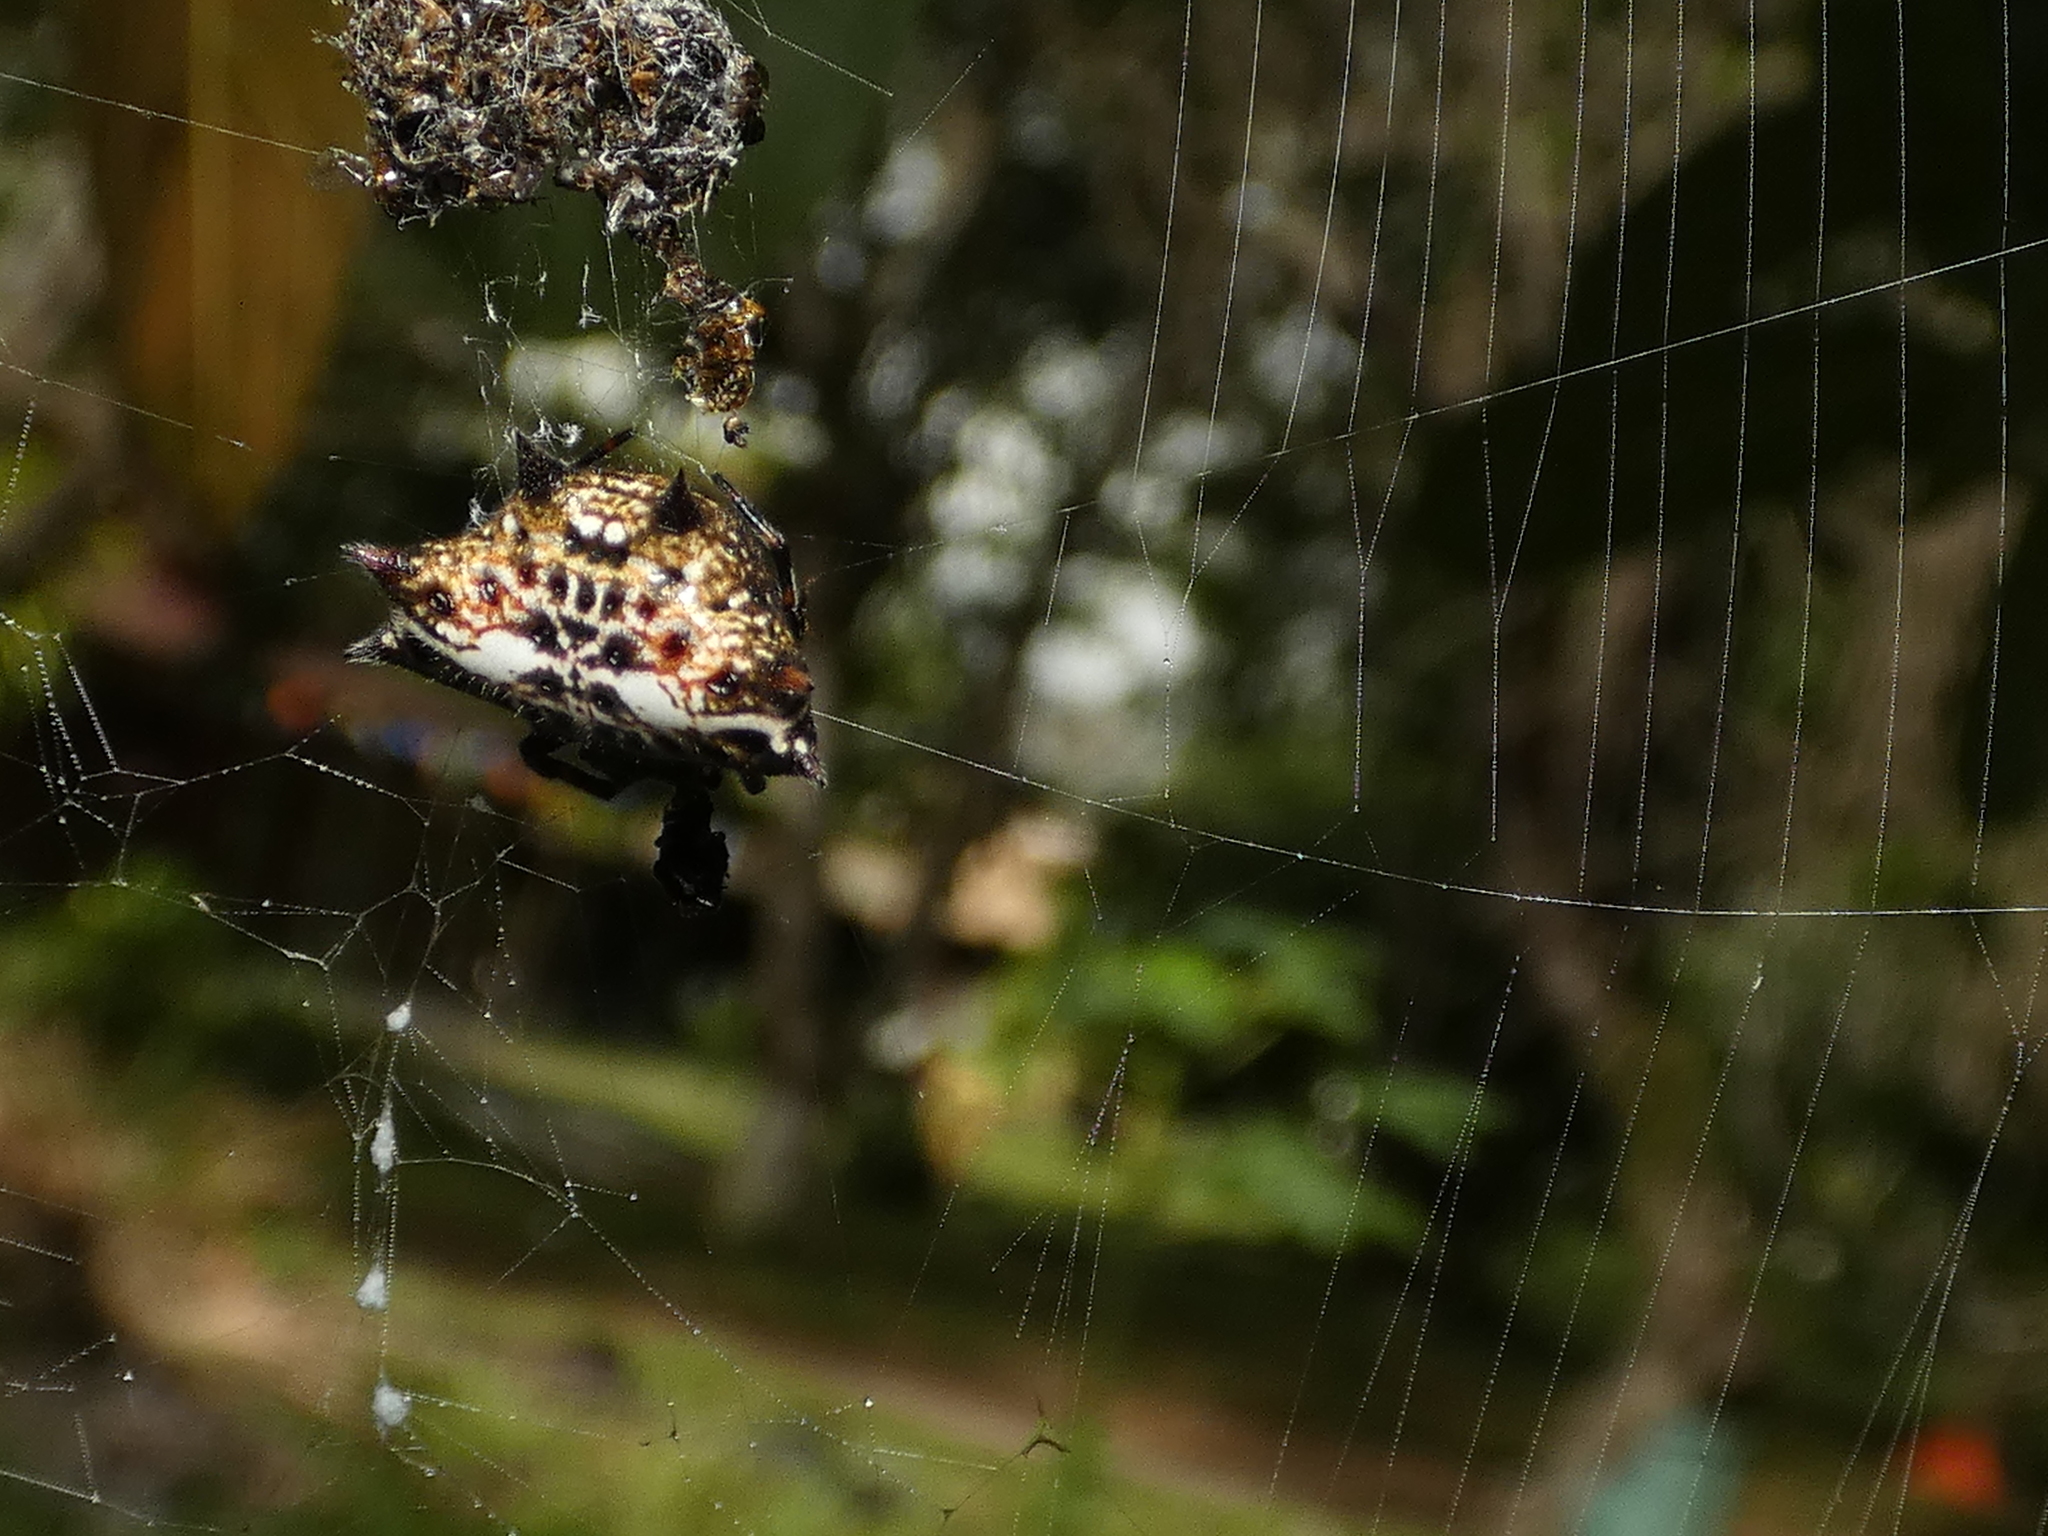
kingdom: Animalia
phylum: Arthropoda
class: Arachnida
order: Araneae
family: Araneidae
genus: Gasteracantha
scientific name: Gasteracantha cancriformis
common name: Orb weavers
